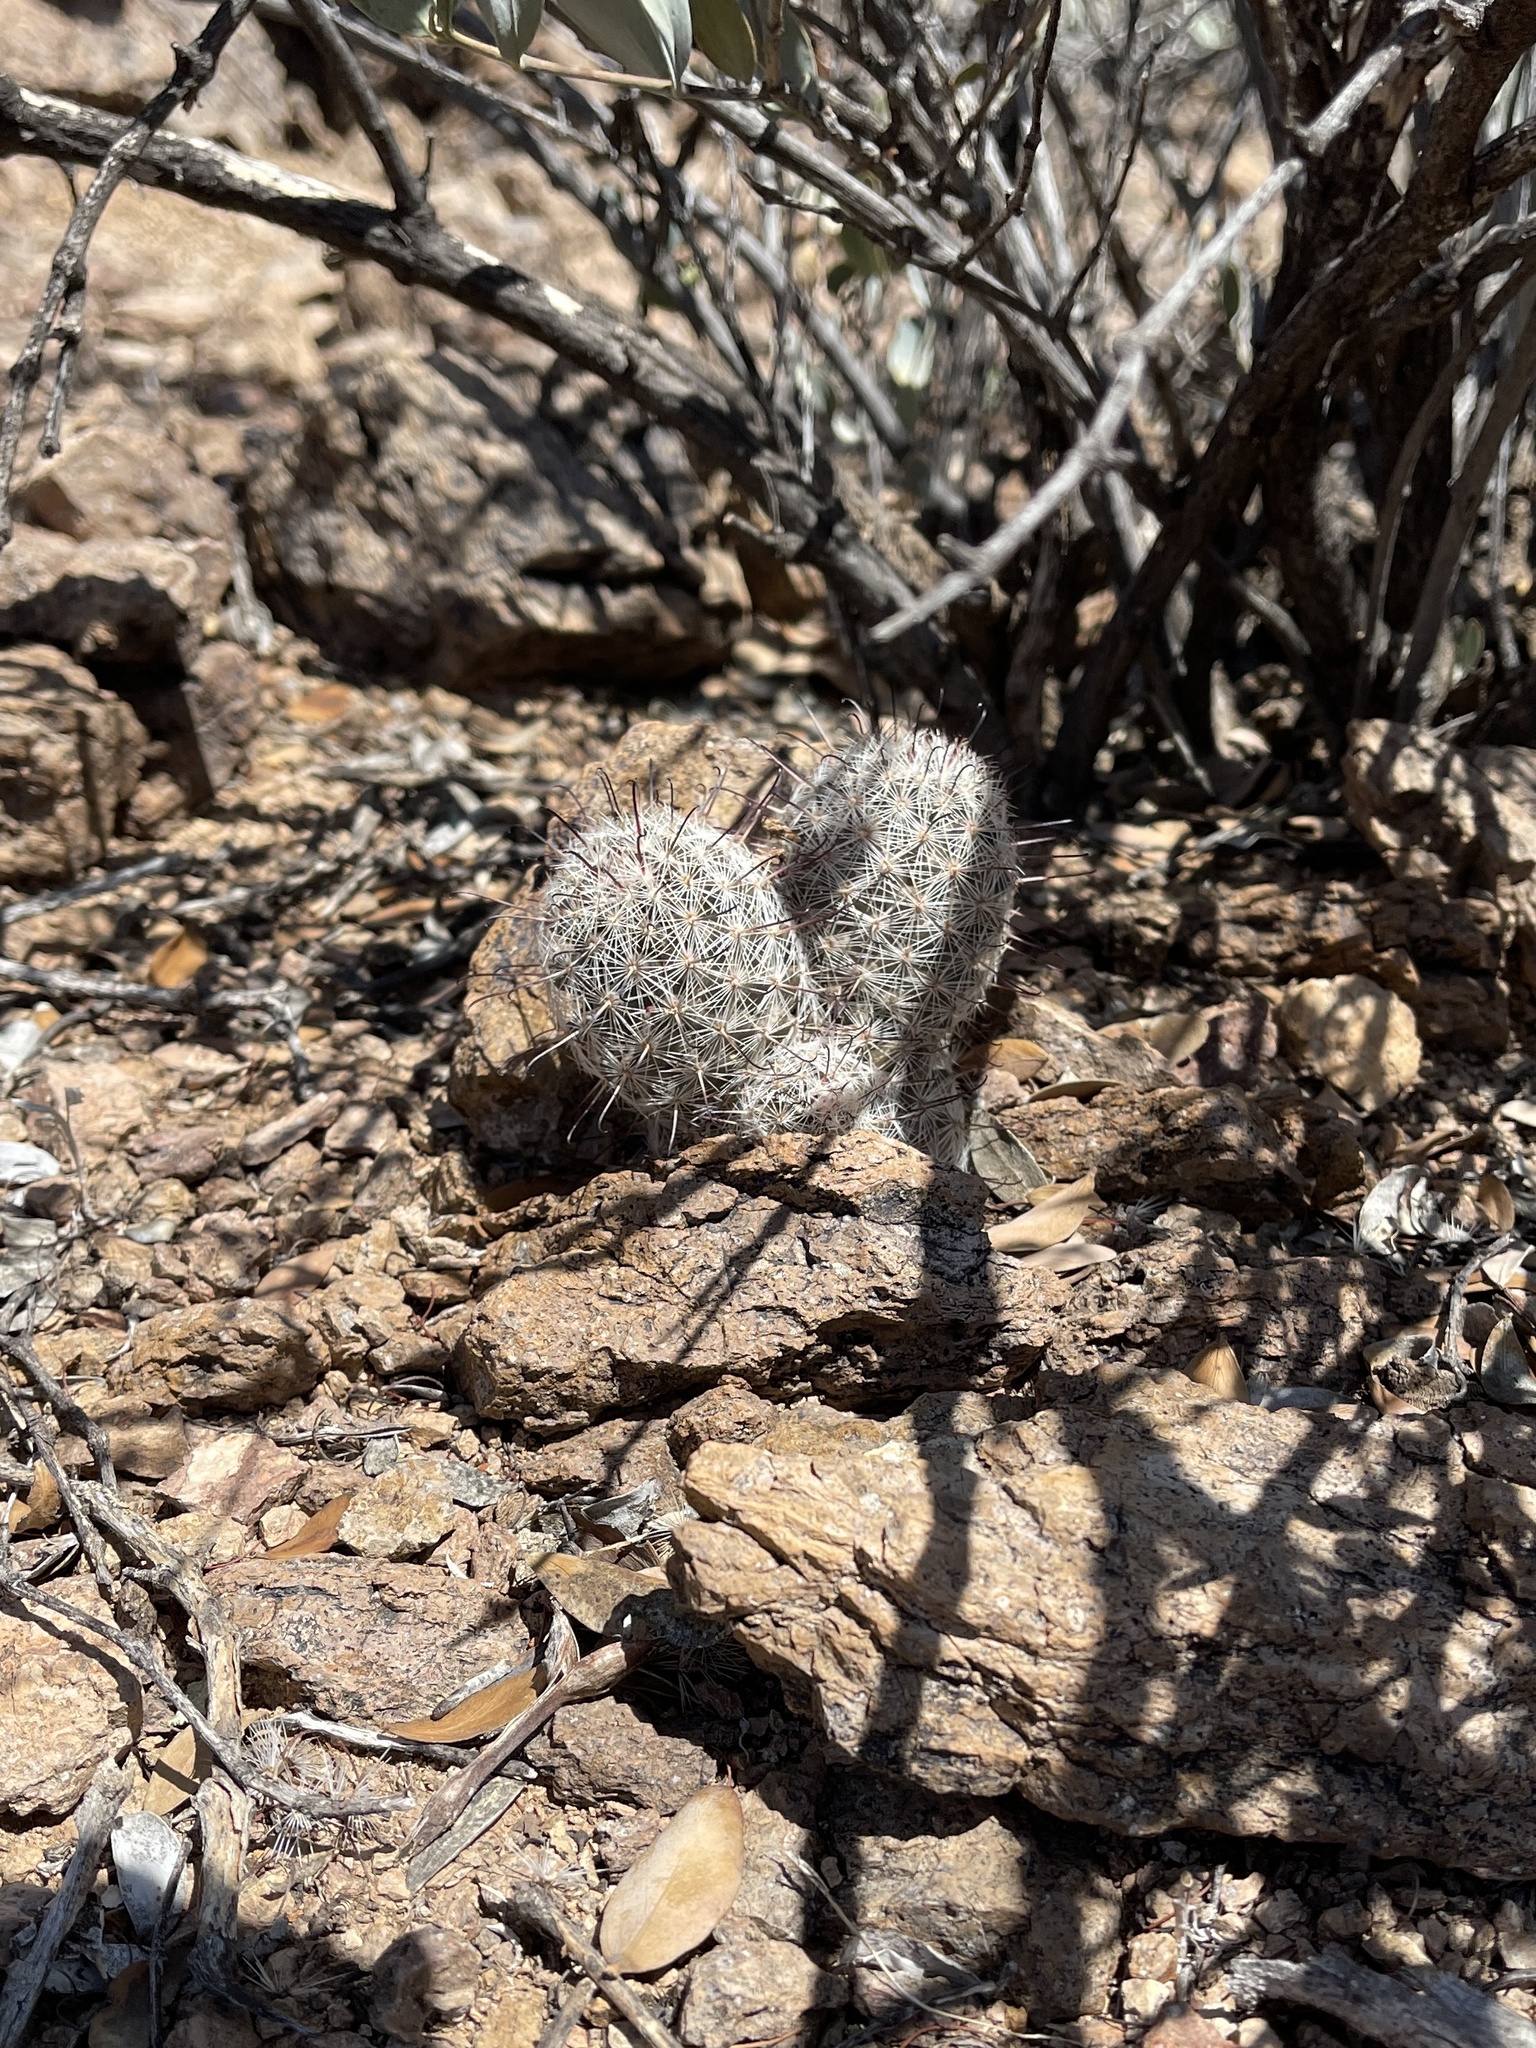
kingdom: Plantae
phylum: Tracheophyta
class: Magnoliopsida
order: Caryophyllales
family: Cactaceae
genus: Cochemiea
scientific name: Cochemiea grahamii
